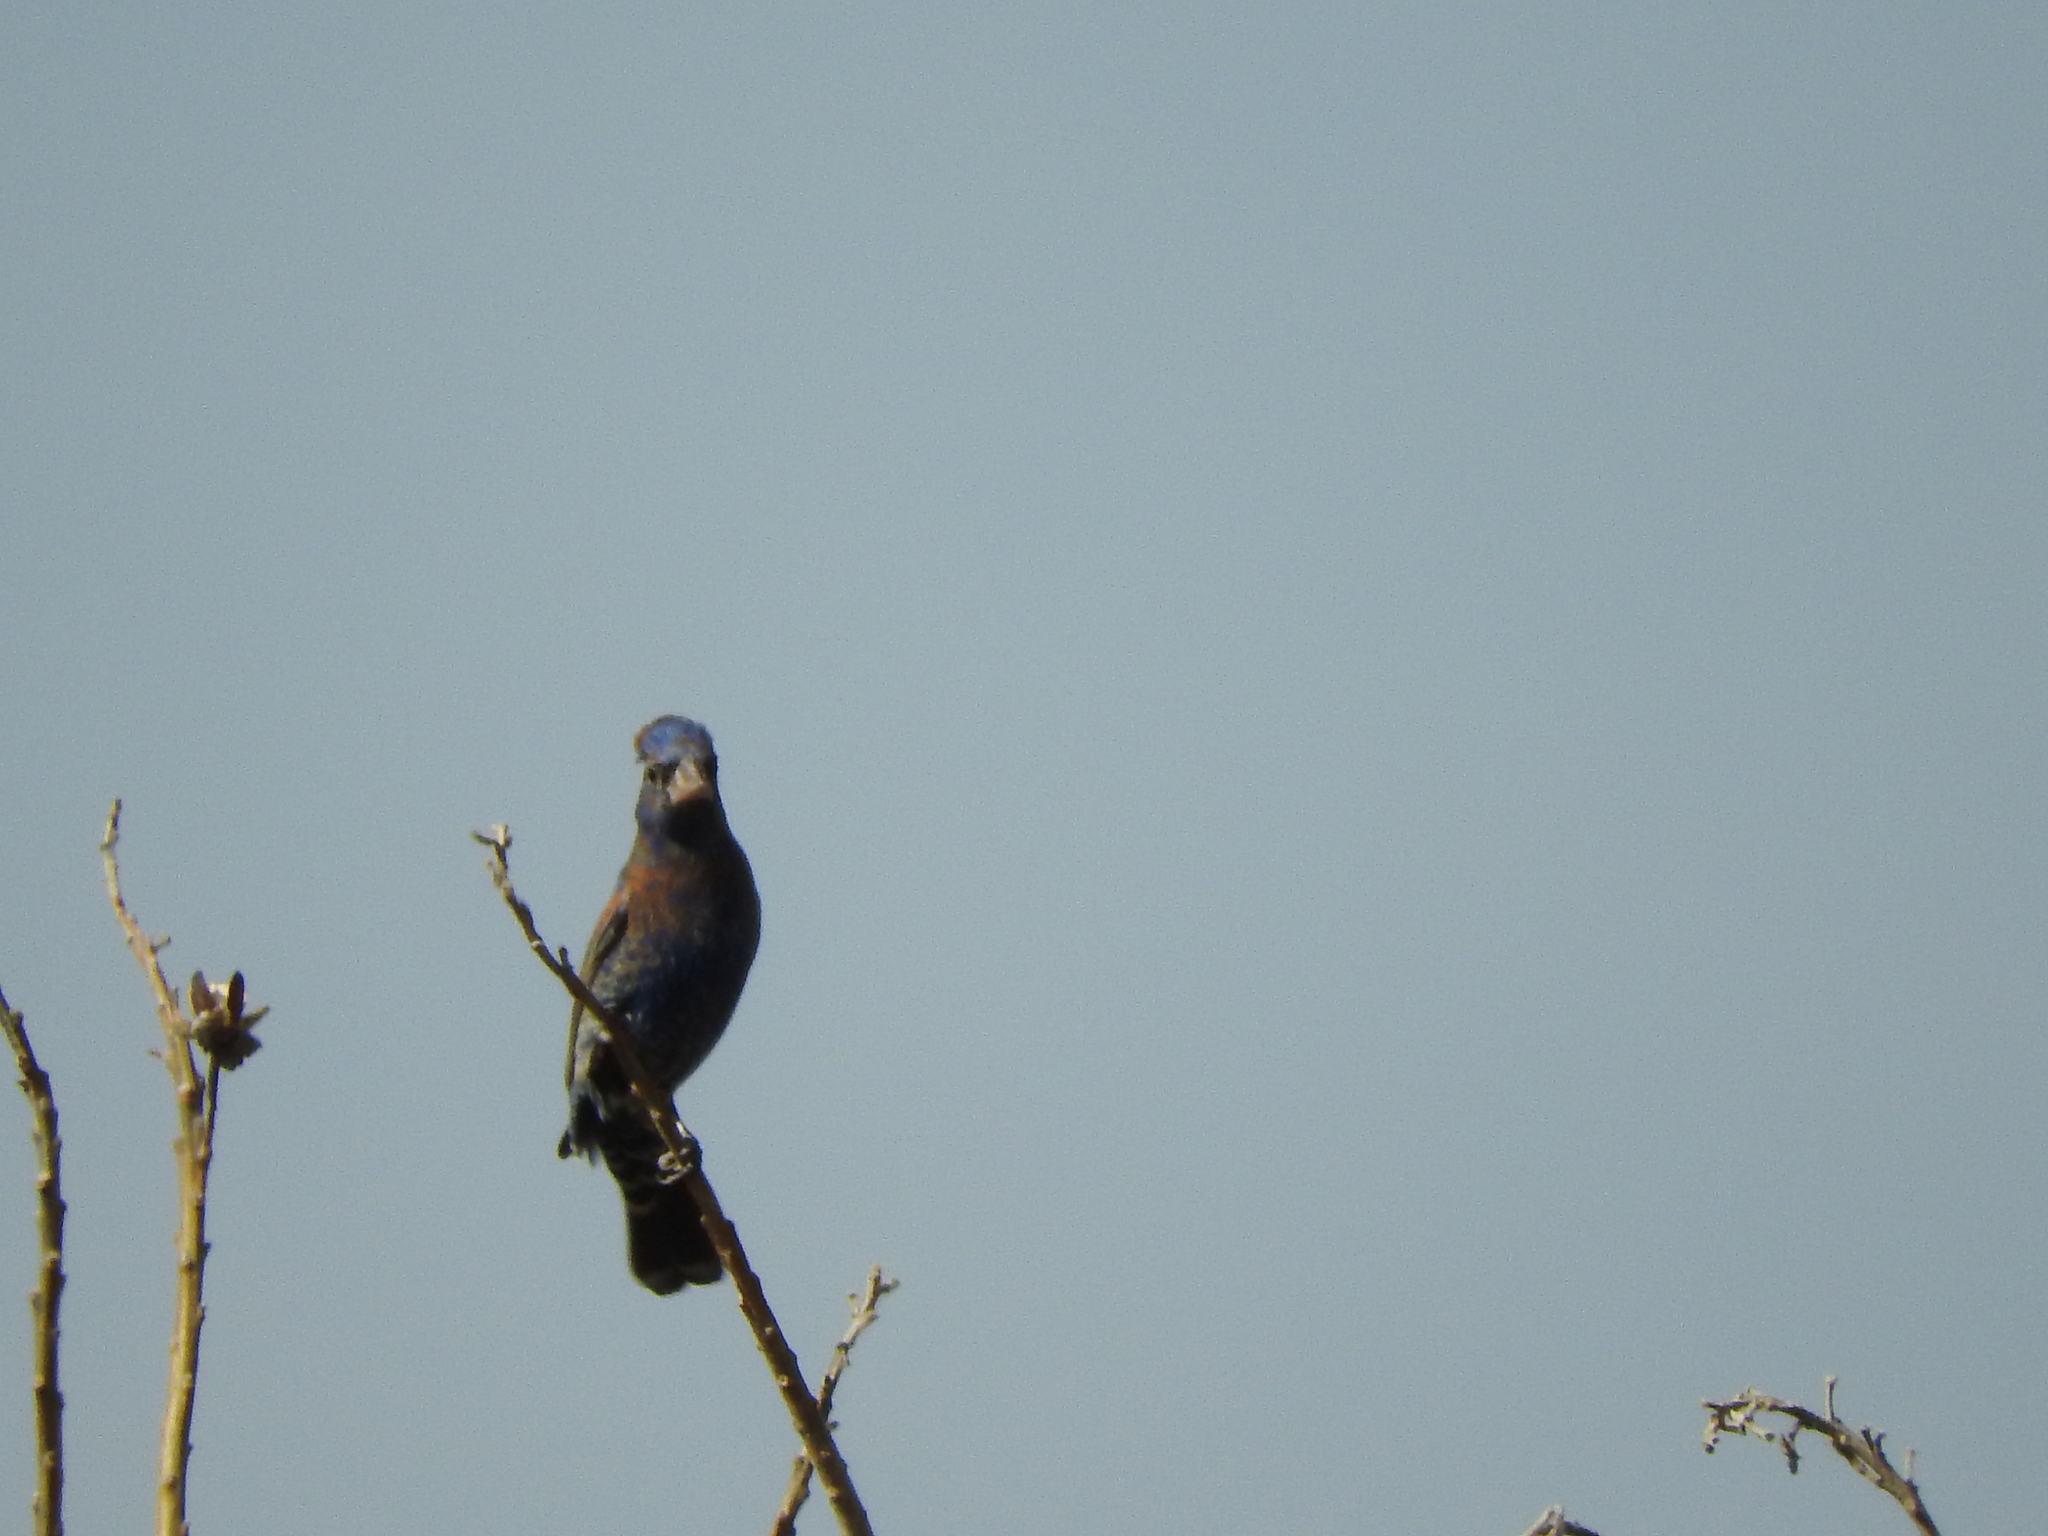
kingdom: Animalia
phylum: Chordata
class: Aves
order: Passeriformes
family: Cardinalidae
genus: Passerina
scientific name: Passerina caerulea
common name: Blue grosbeak
